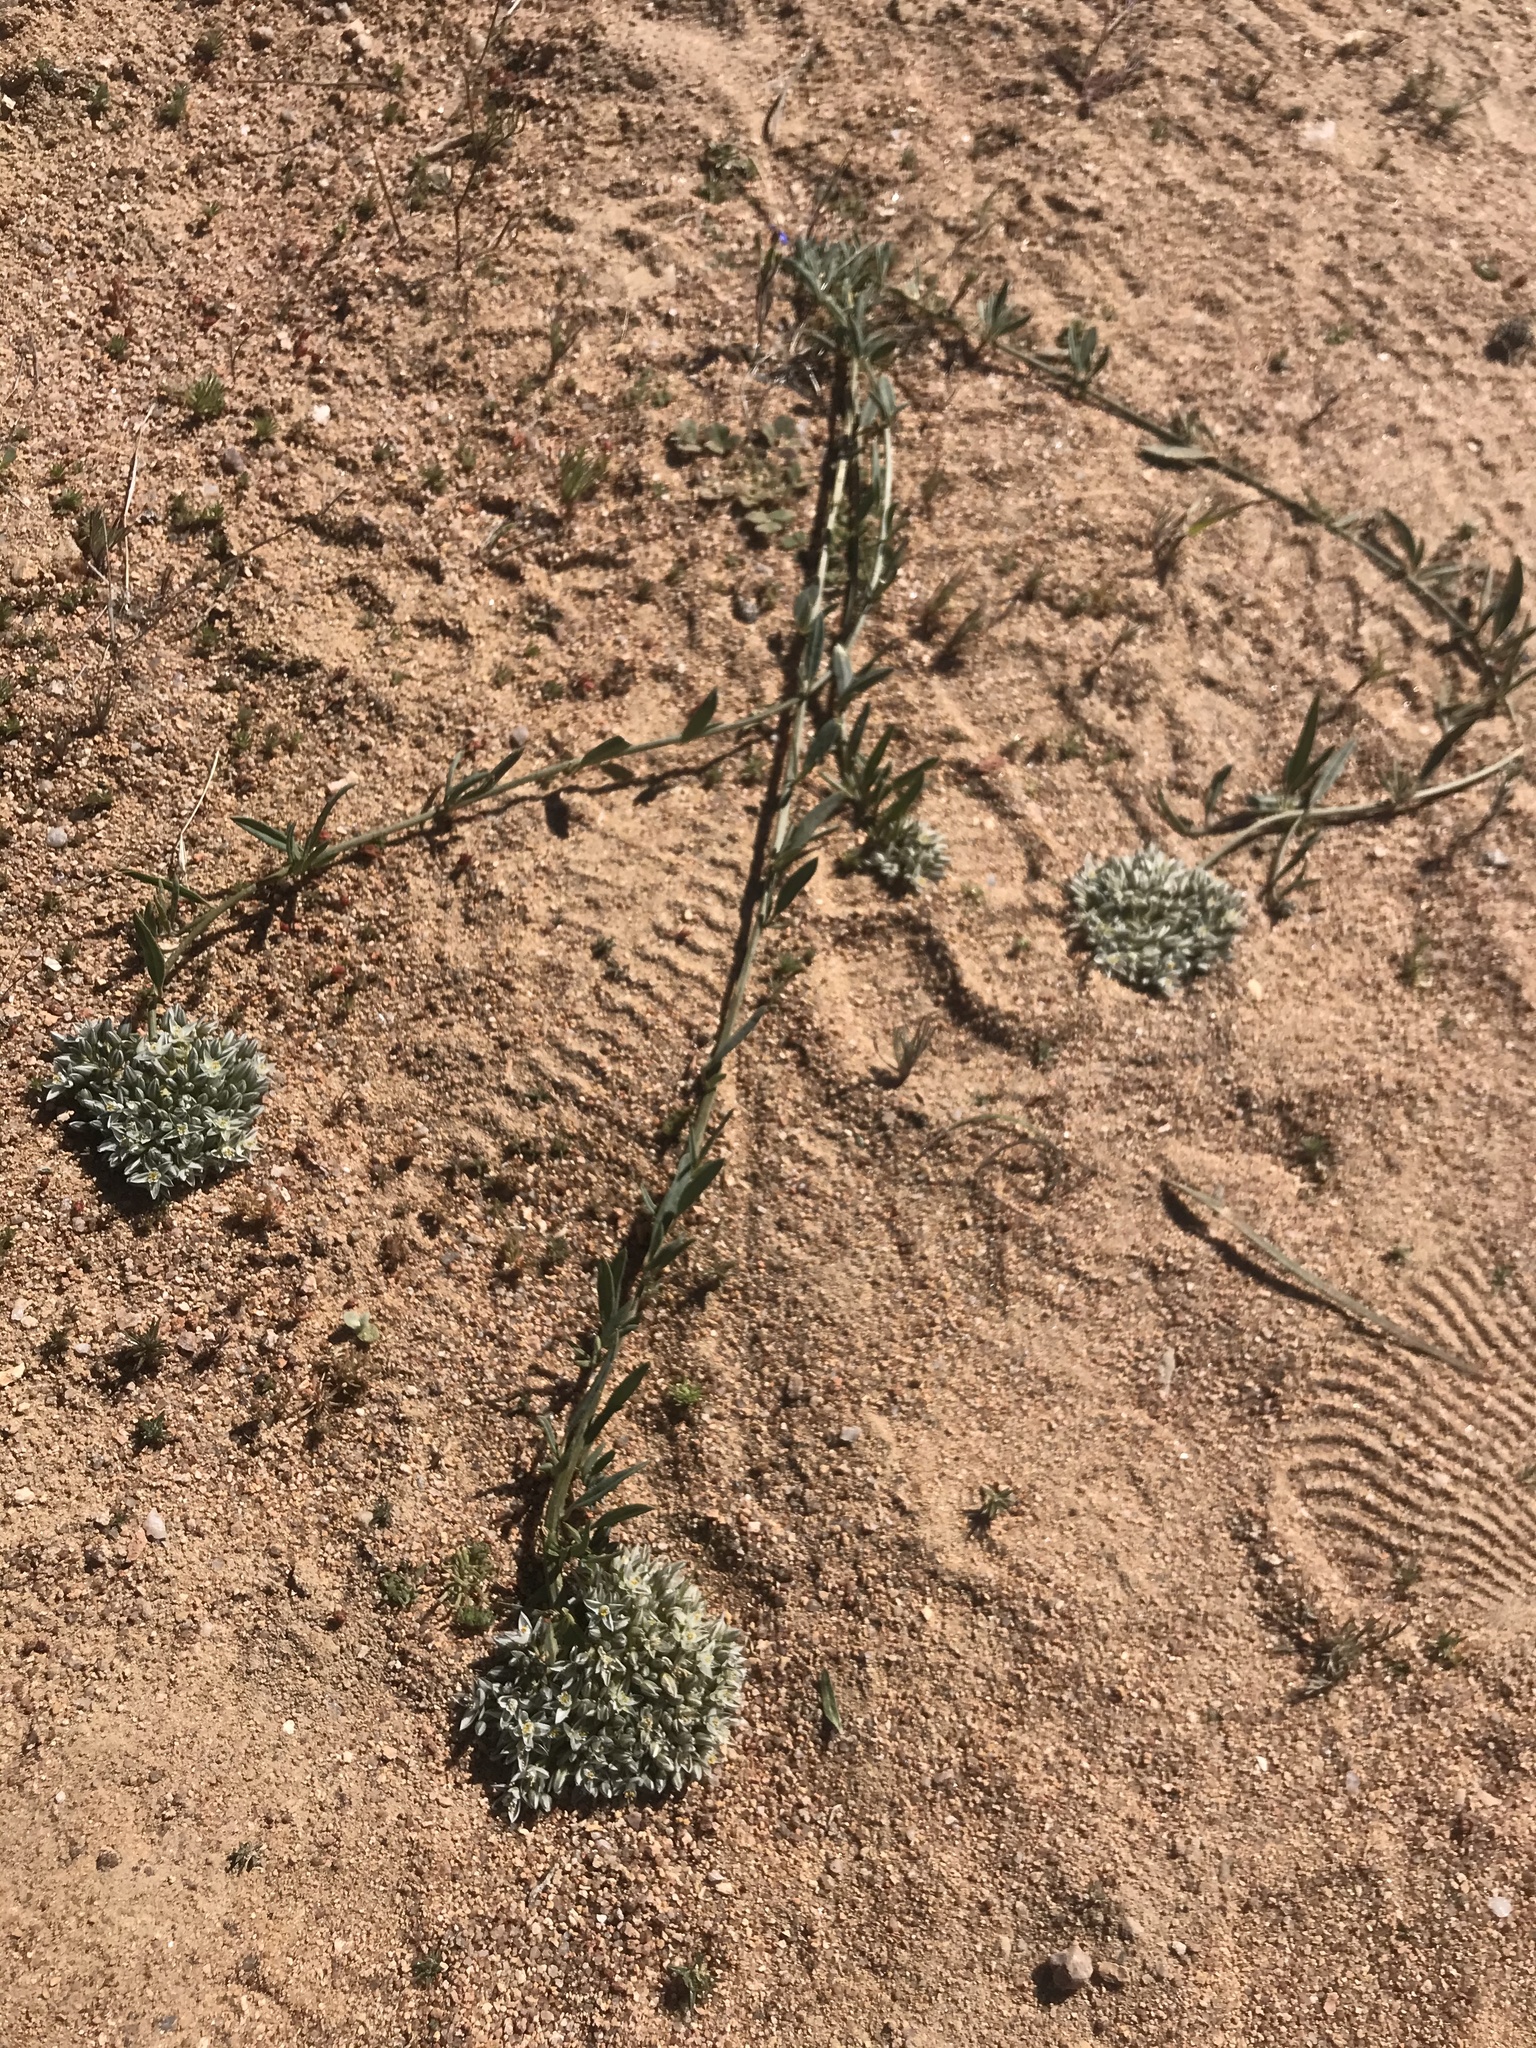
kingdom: Plantae
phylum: Tracheophyta
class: Magnoliopsida
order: Caryophyllales
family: Limeaceae
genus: Limeum
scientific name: Limeum africanum
